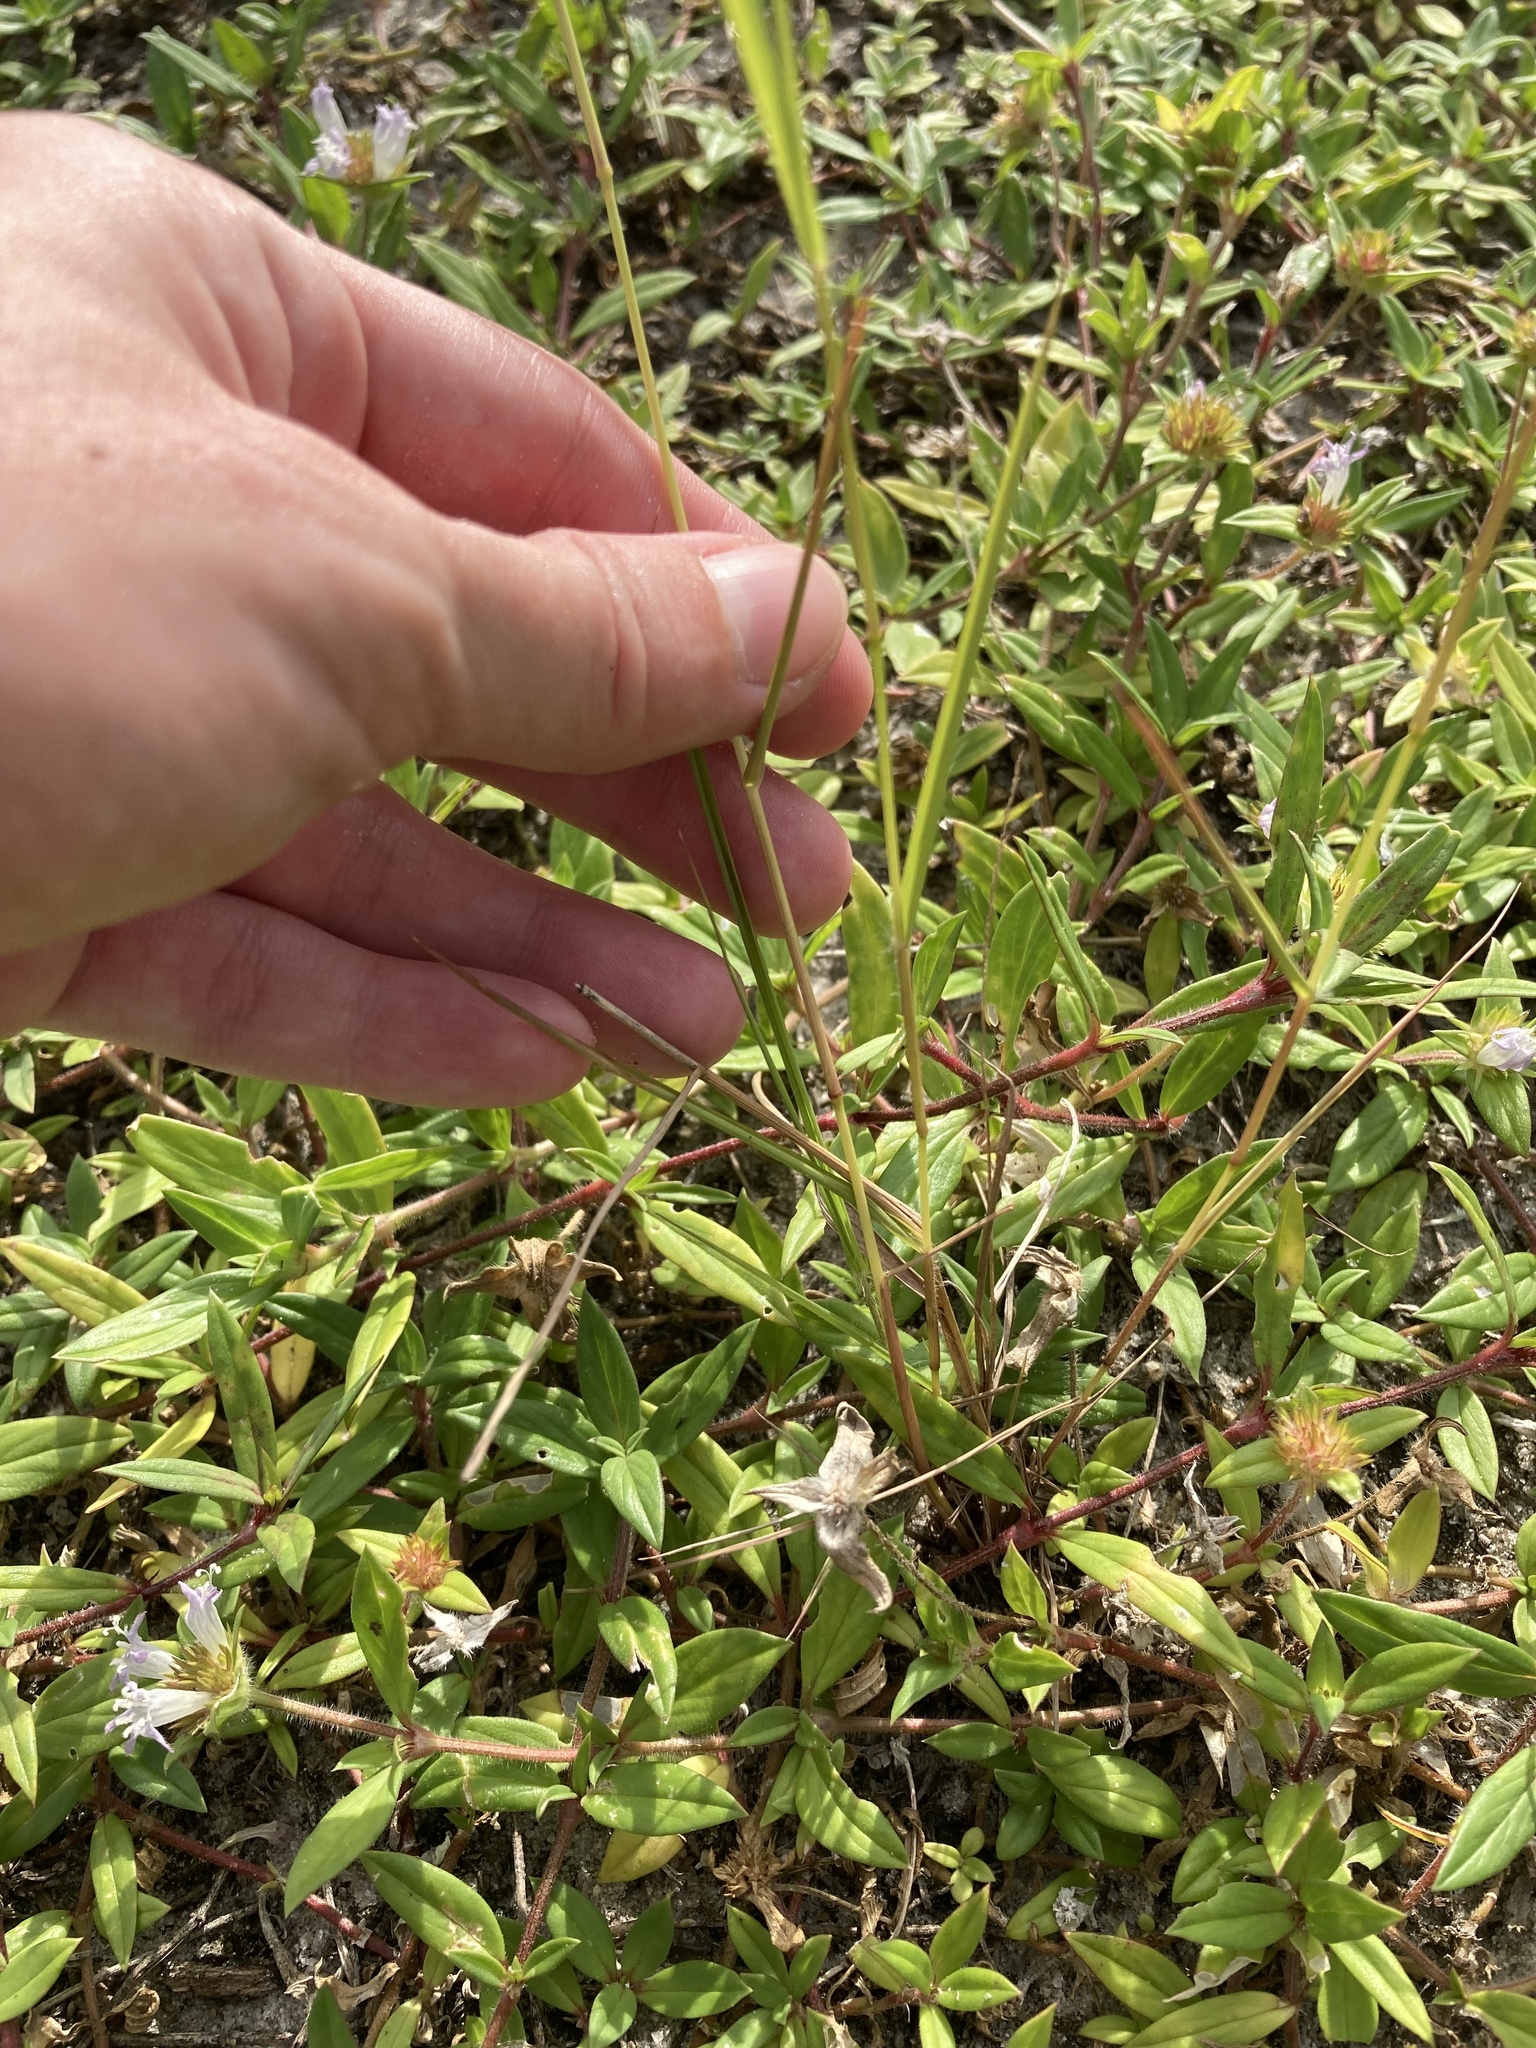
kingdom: Plantae
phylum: Tracheophyta
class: Liliopsida
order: Poales
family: Poaceae
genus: Eragrostis
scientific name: Eragrostis ciliaris
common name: Gophertail lovegrass
